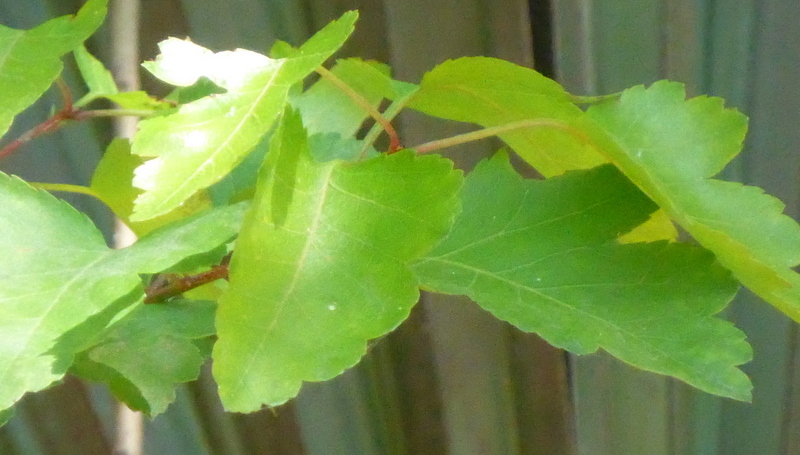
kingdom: Plantae
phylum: Tracheophyta
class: Magnoliopsida
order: Rosales
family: Rosaceae
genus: Crataegus
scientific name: Crataegus marshallii
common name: Parsley-hawthorn
